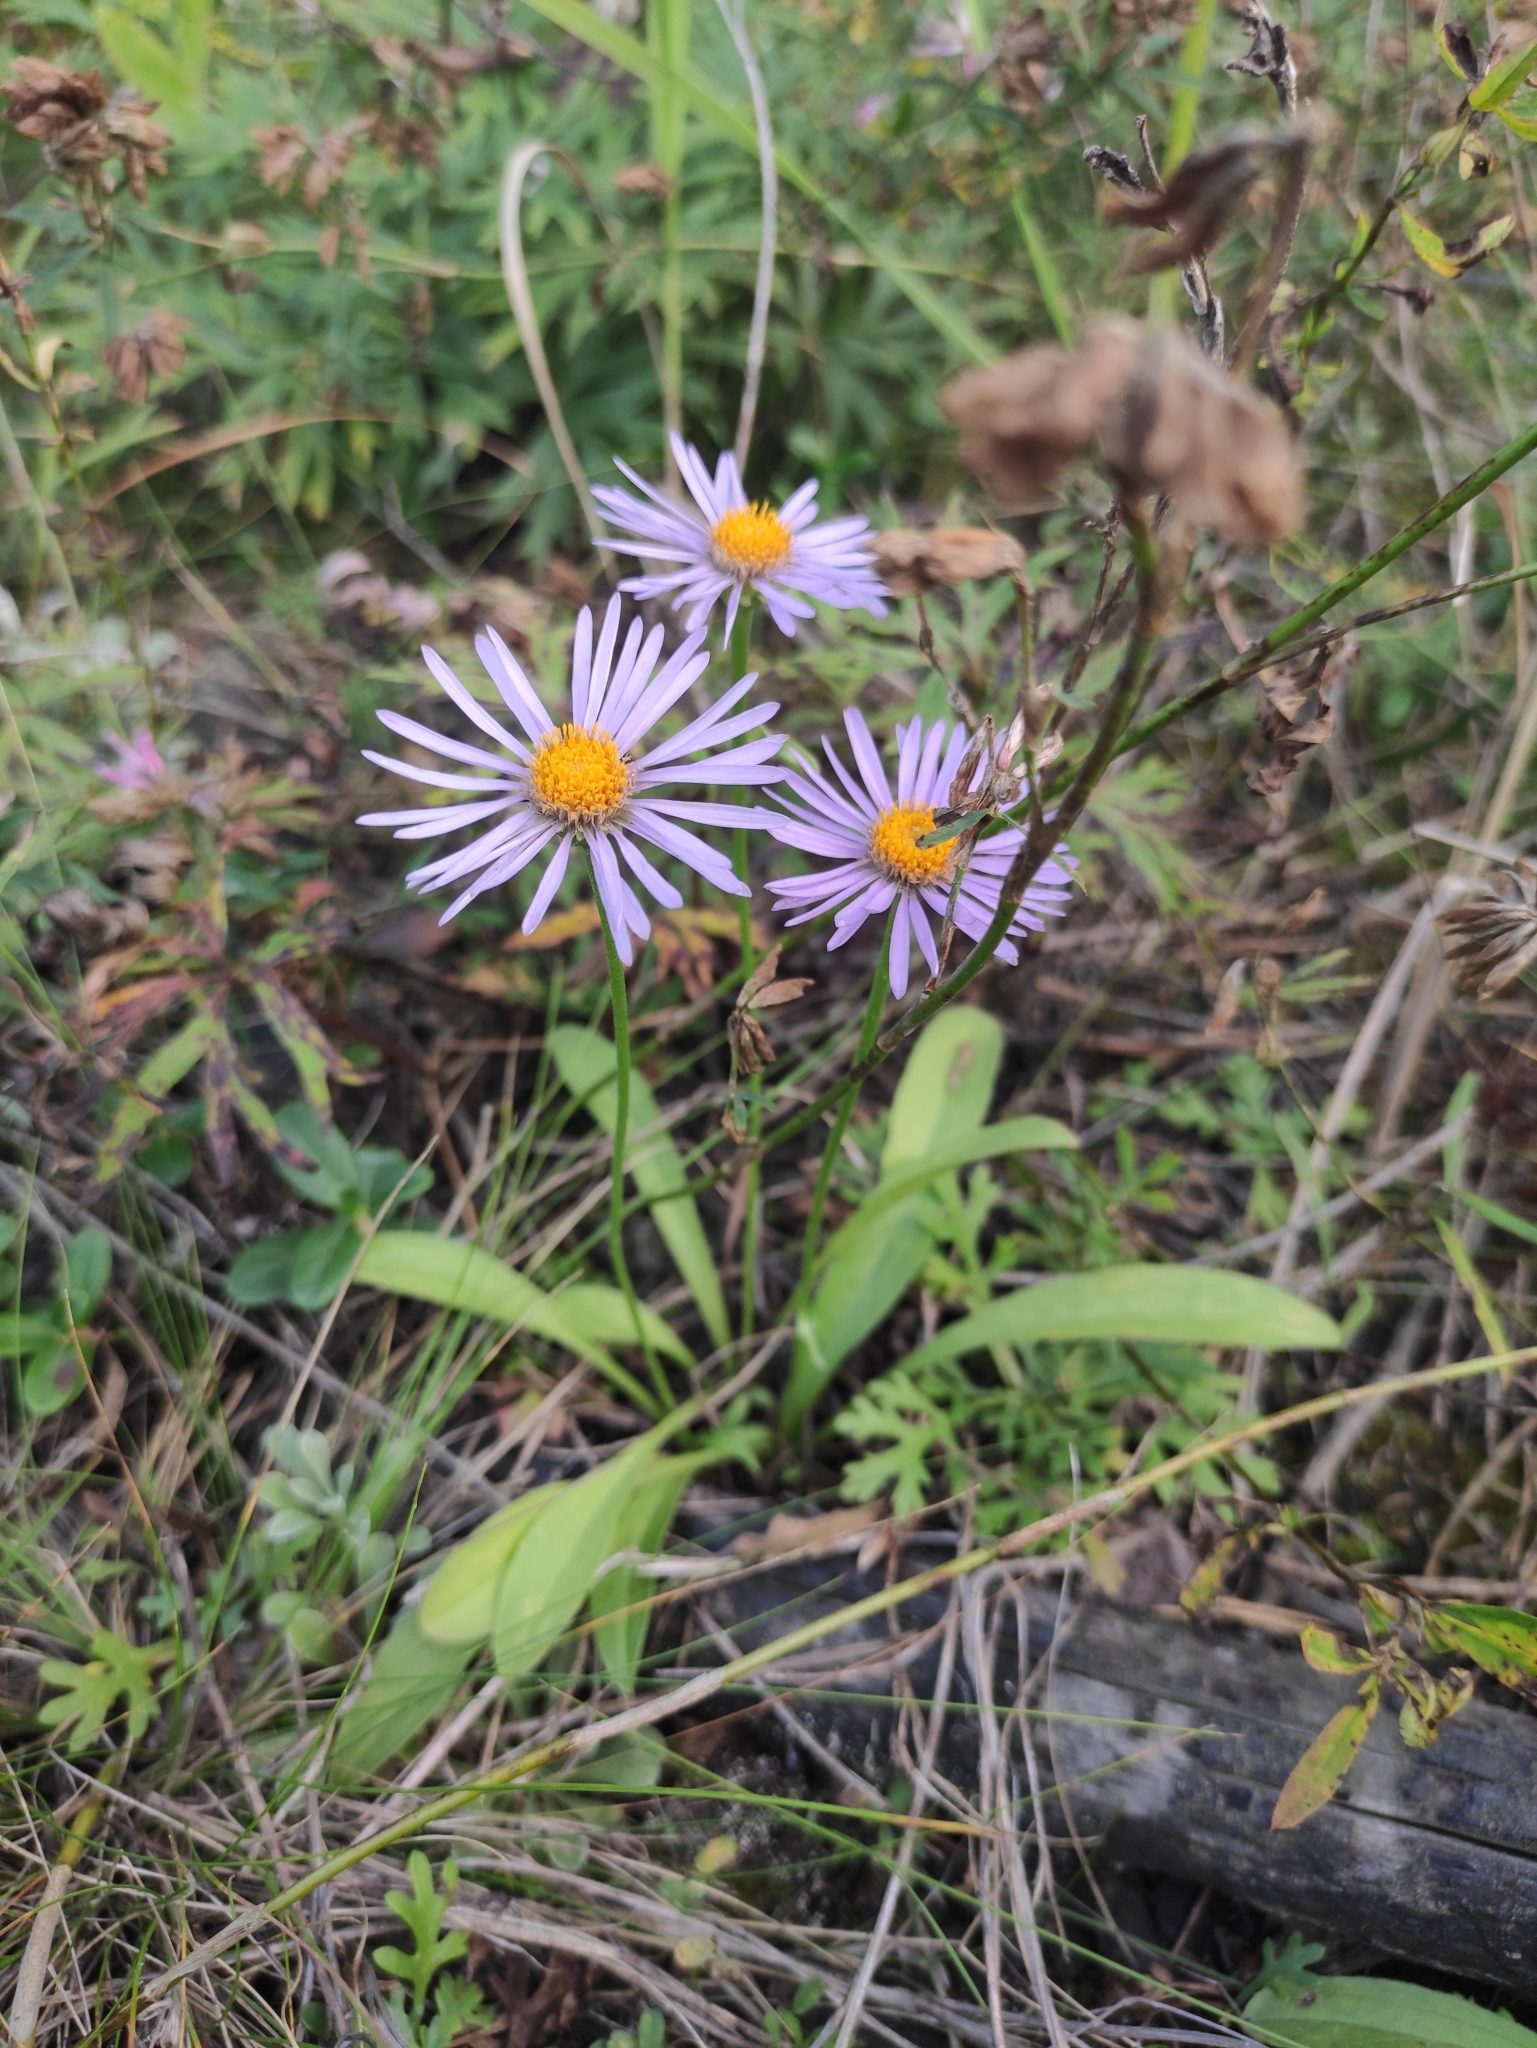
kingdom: Plantae
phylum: Tracheophyta
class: Magnoliopsida
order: Asterales
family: Asteraceae
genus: Aster
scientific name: Aster alpinus
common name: Alpine aster
